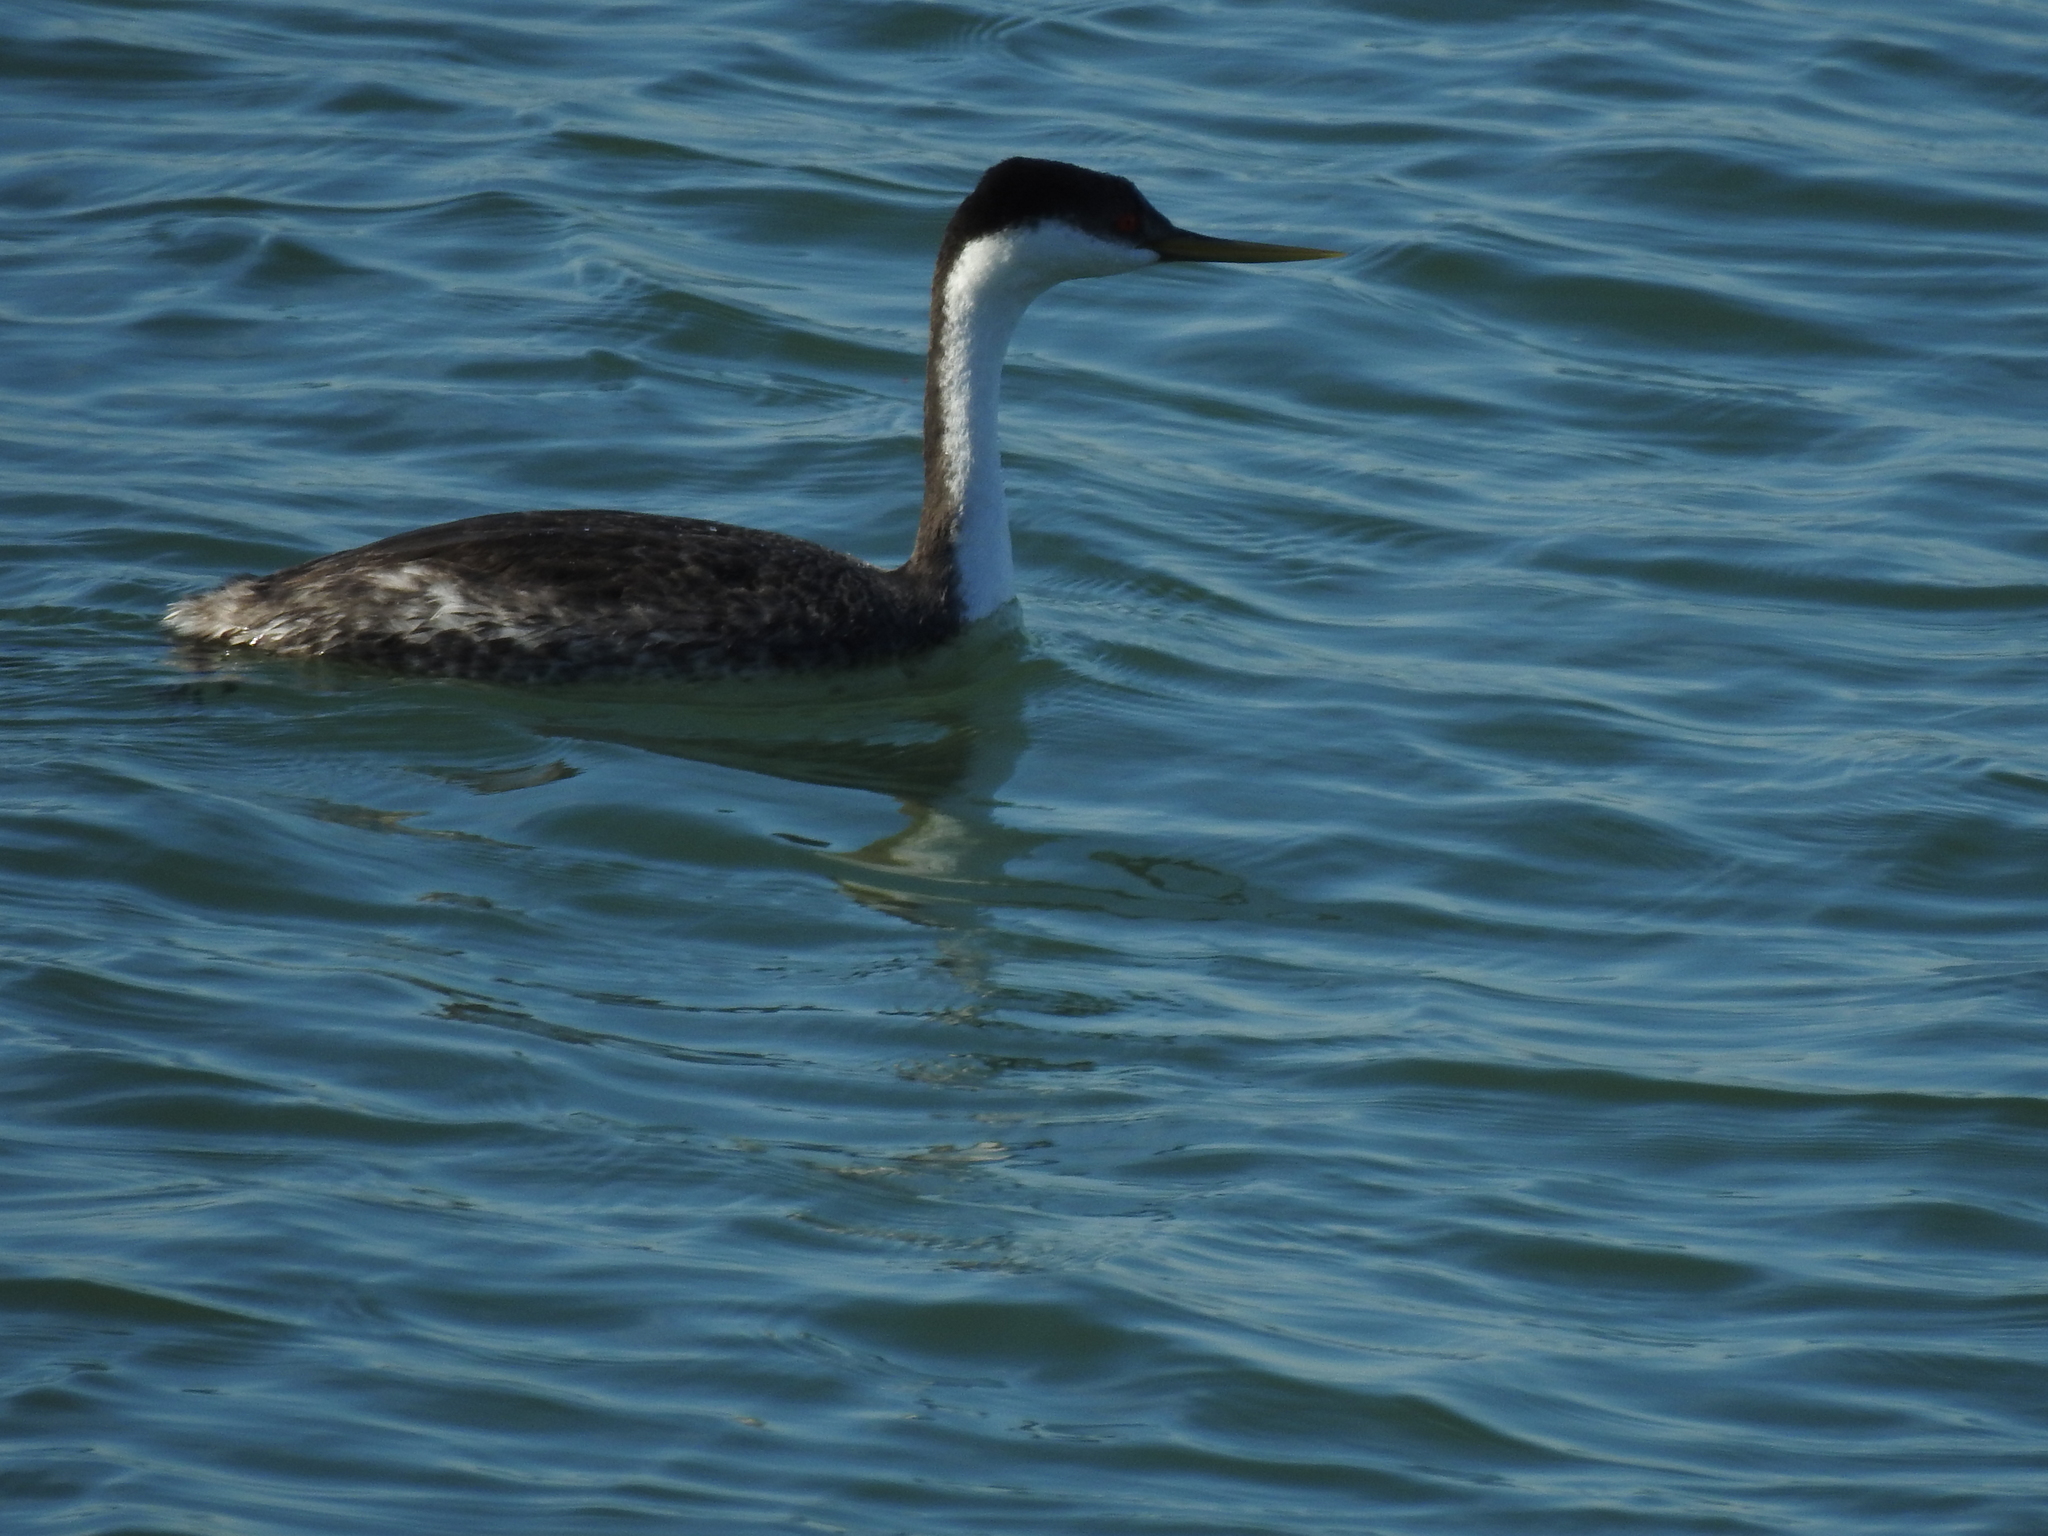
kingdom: Animalia
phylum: Chordata
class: Aves
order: Podicipediformes
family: Podicipedidae
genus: Aechmophorus
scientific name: Aechmophorus occidentalis
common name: Western grebe
